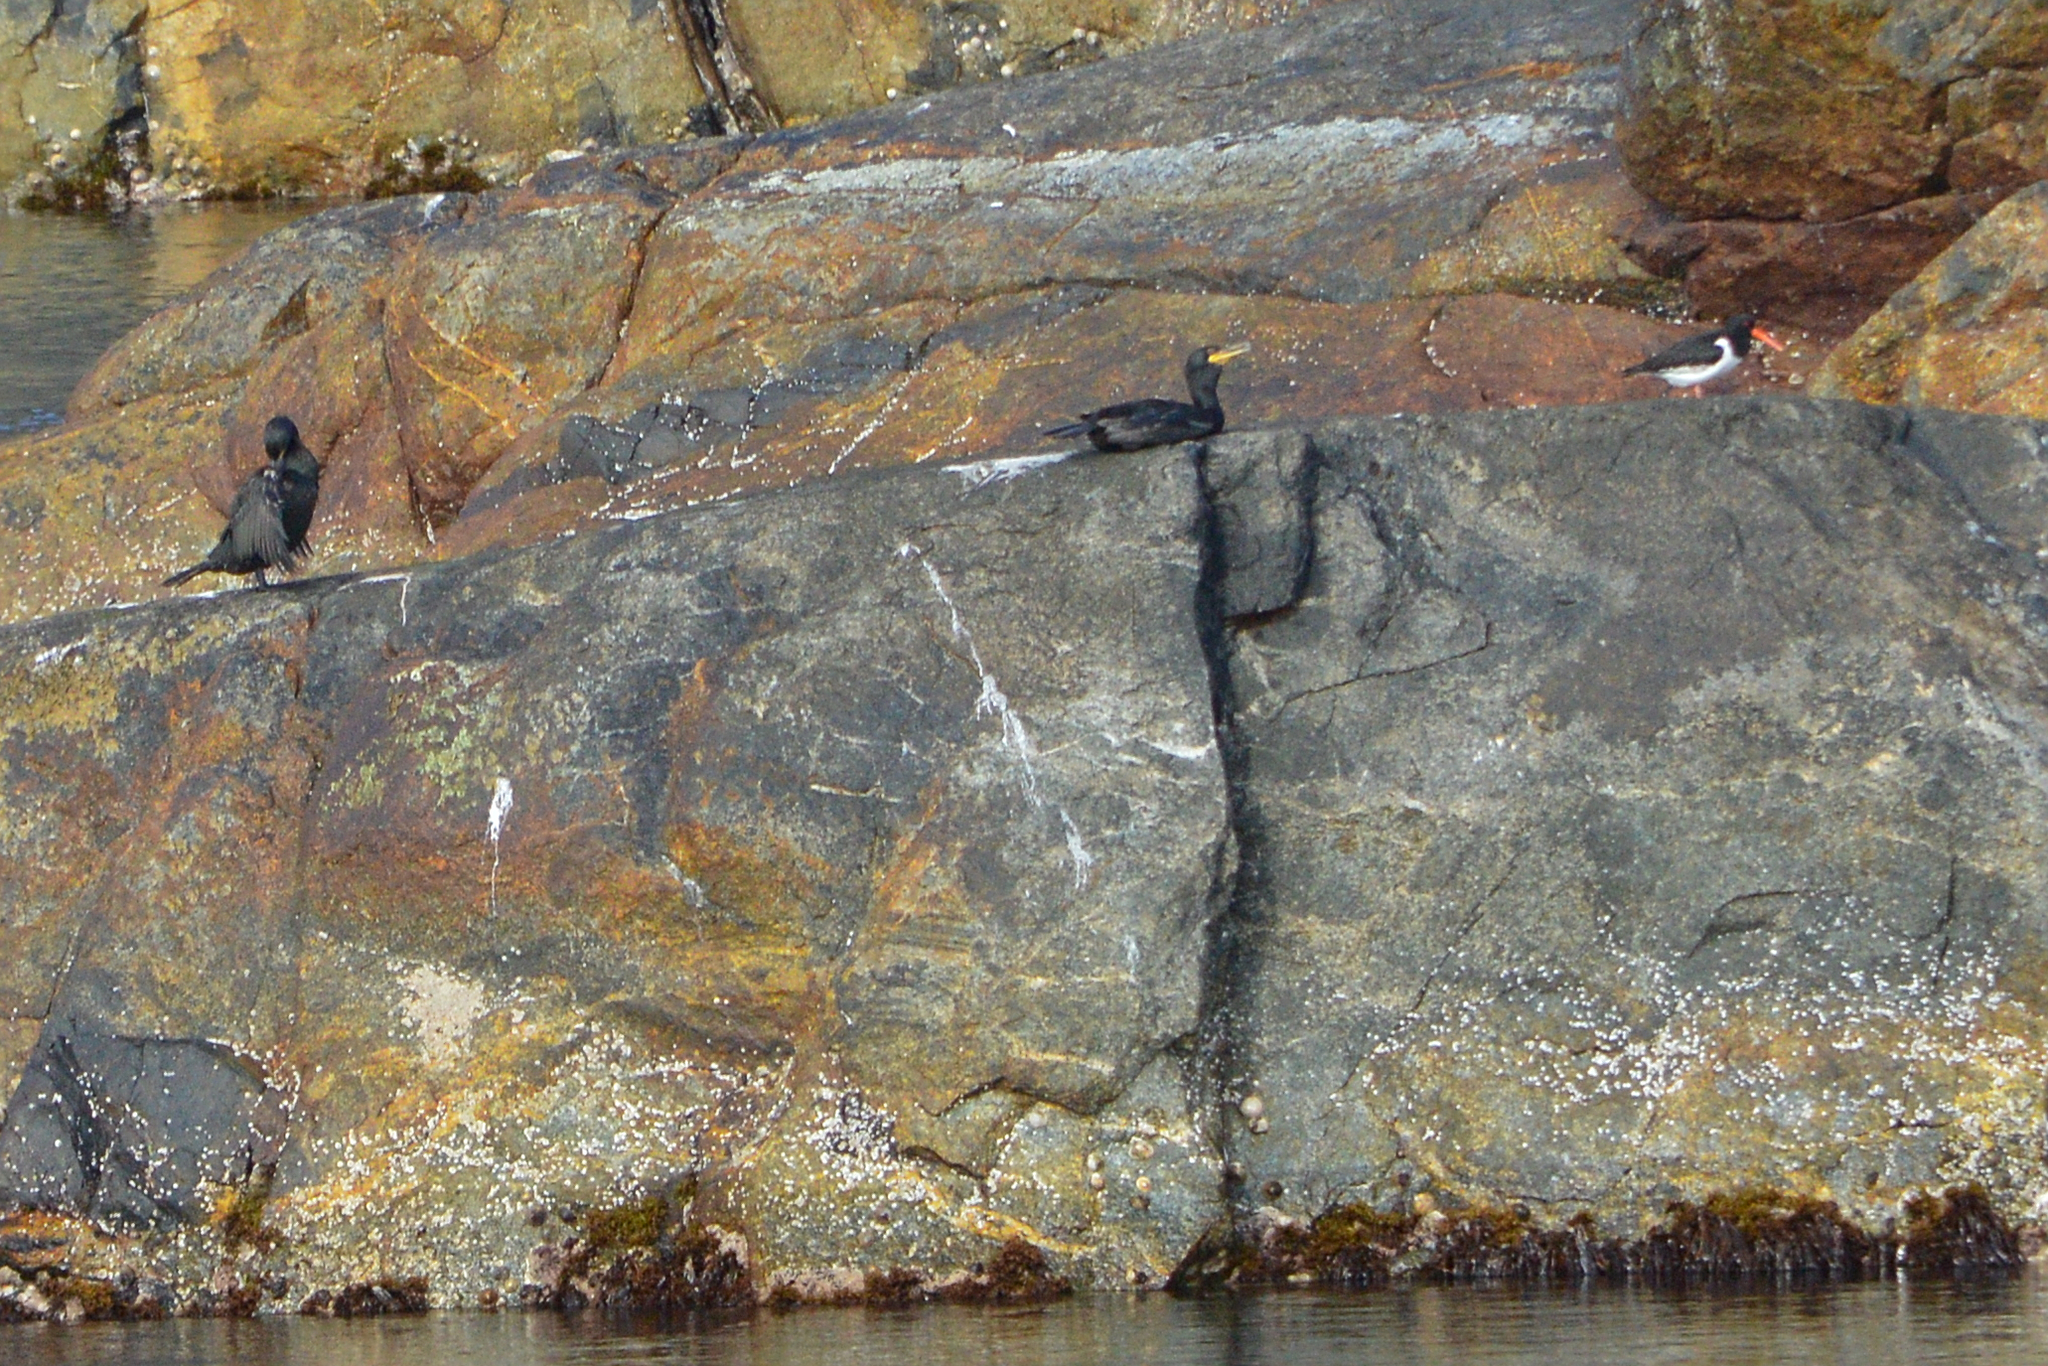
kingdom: Animalia
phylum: Chordata
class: Aves
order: Charadriiformes
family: Haematopodidae
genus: Haematopus
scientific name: Haematopus ostralegus
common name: Eurasian oystercatcher
